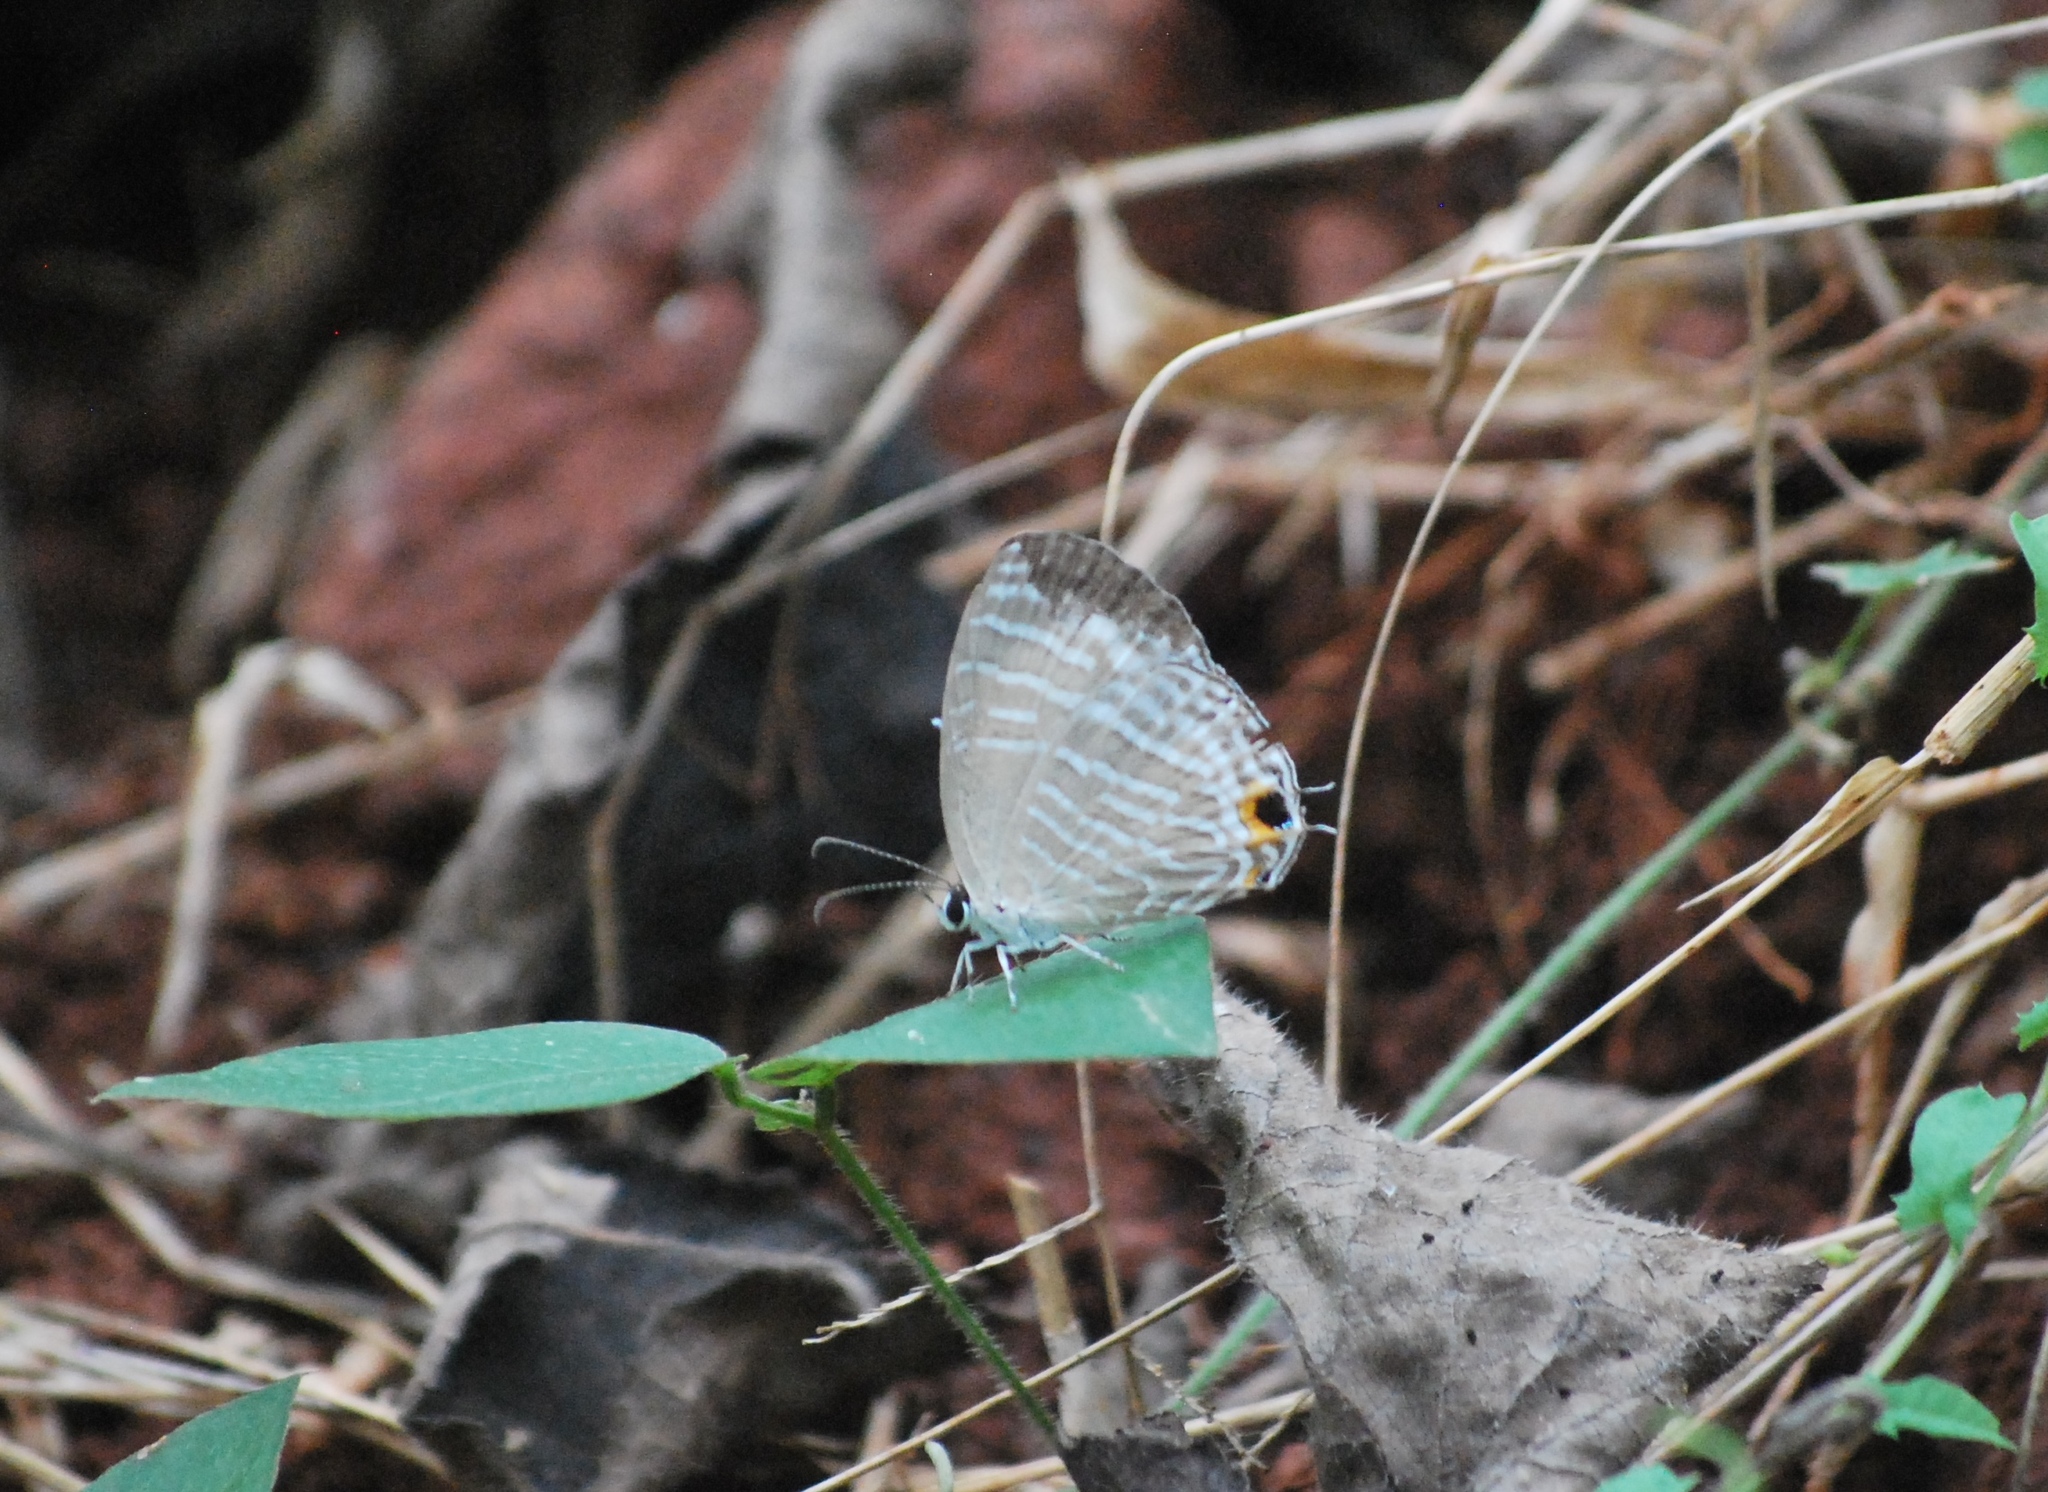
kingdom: Animalia
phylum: Arthropoda
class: Insecta
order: Lepidoptera
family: Lycaenidae
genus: Jamides
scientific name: Jamides celeno
